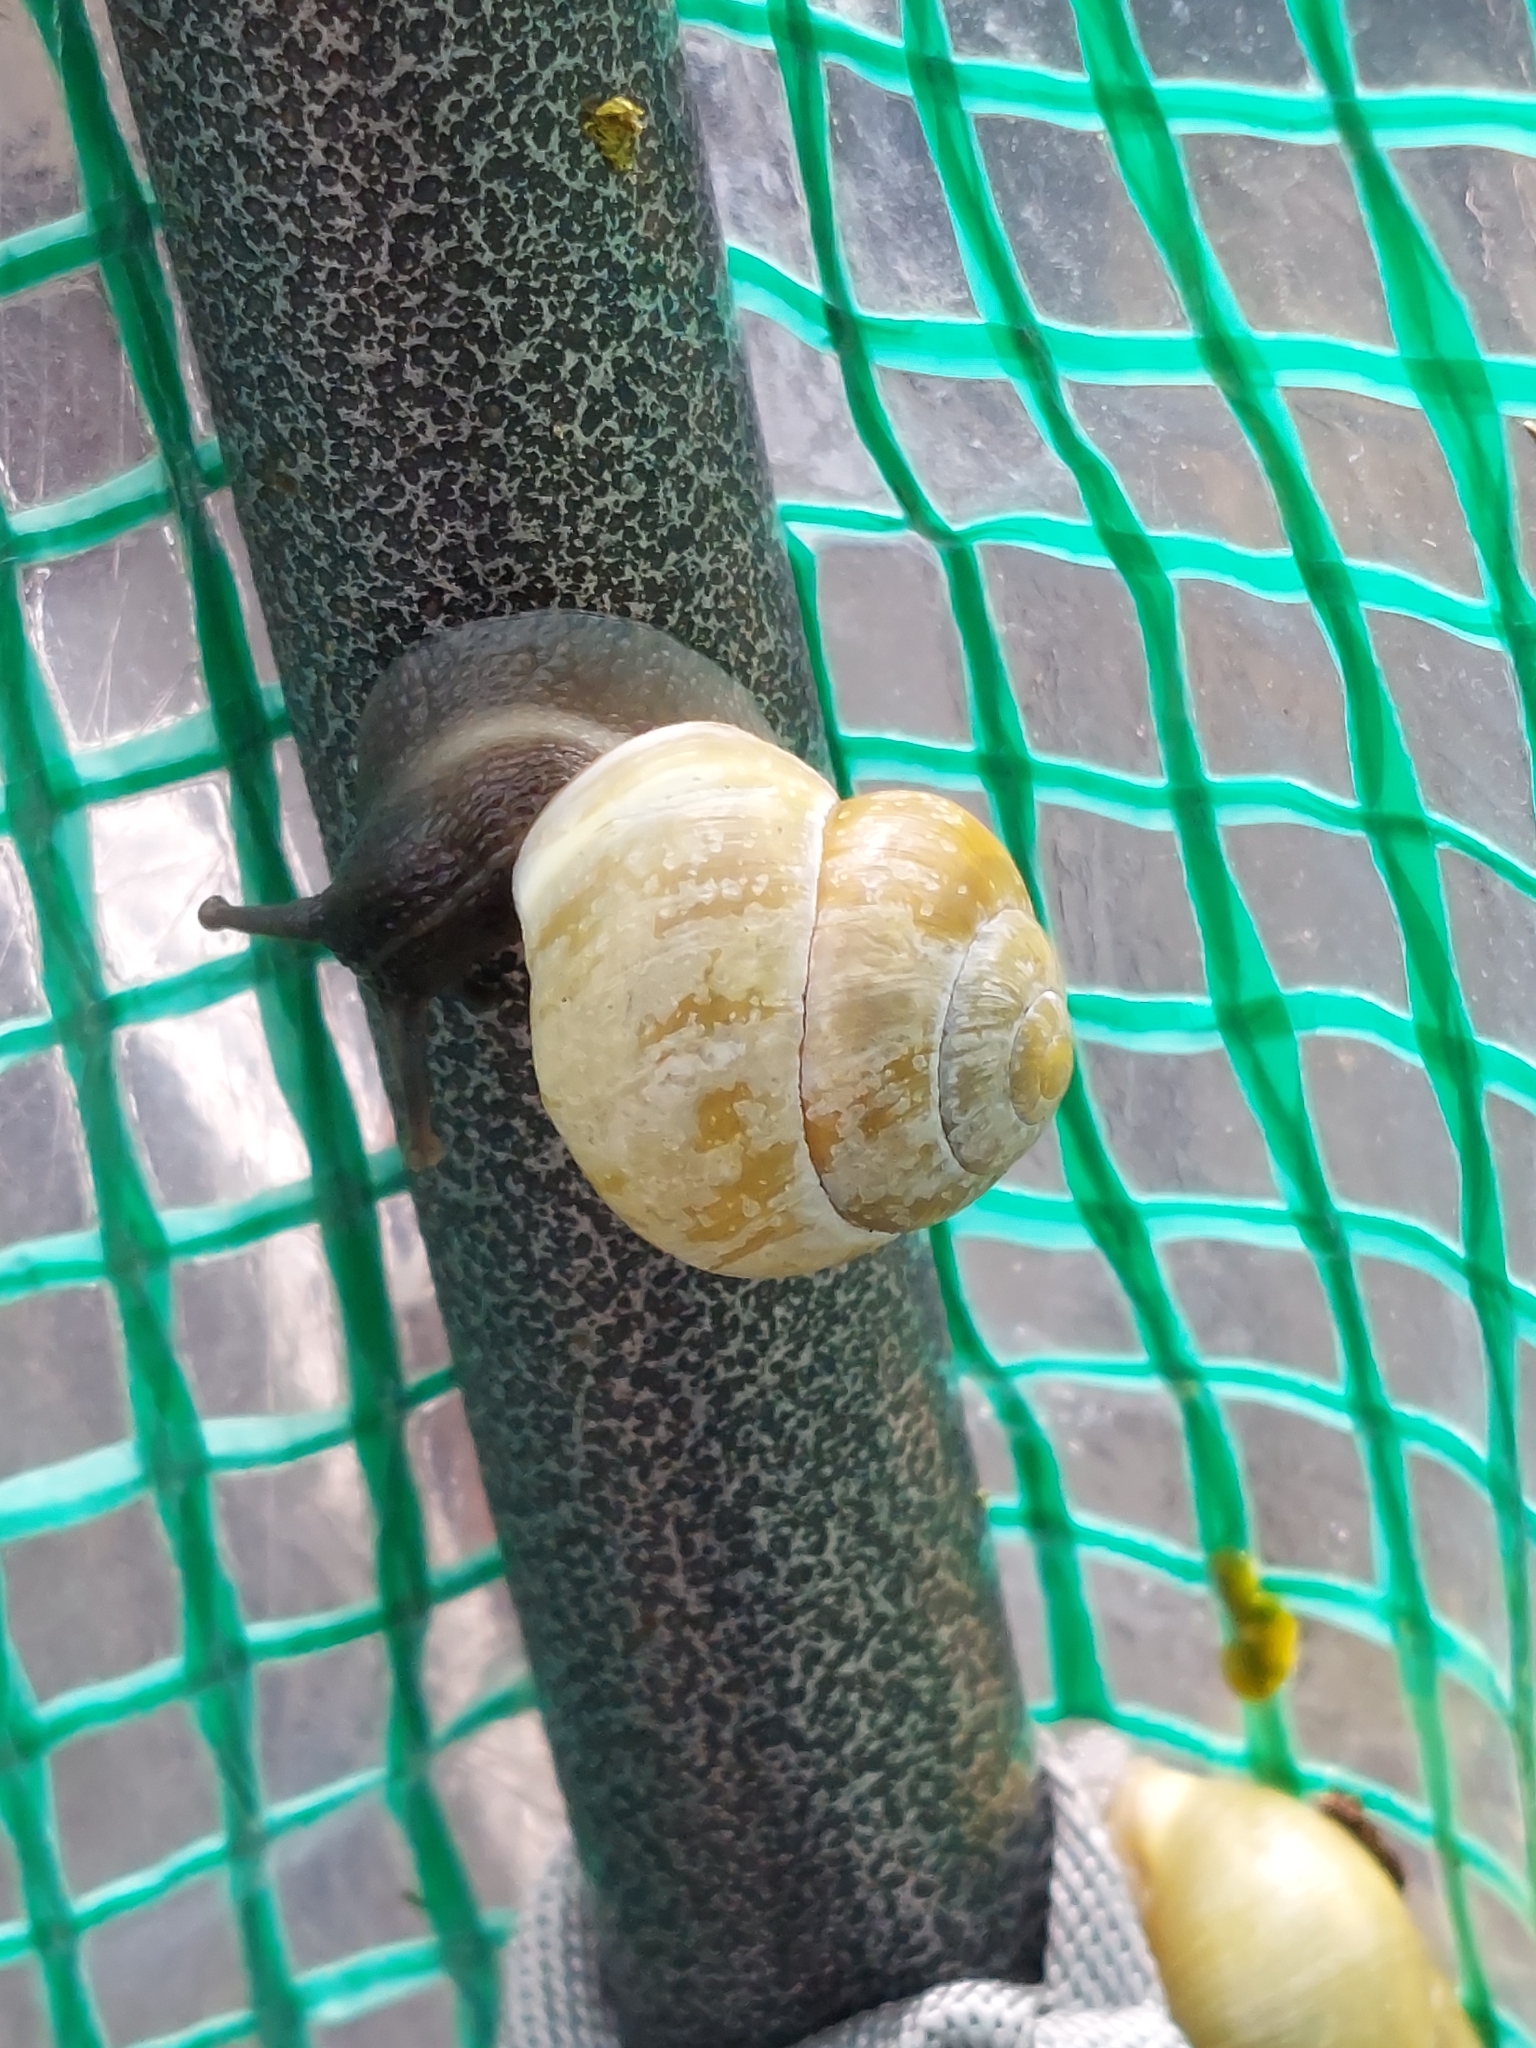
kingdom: Animalia
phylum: Mollusca
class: Gastropoda
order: Stylommatophora
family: Helicidae
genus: Cepaea
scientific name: Cepaea hortensis
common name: White-lip gardensnail
